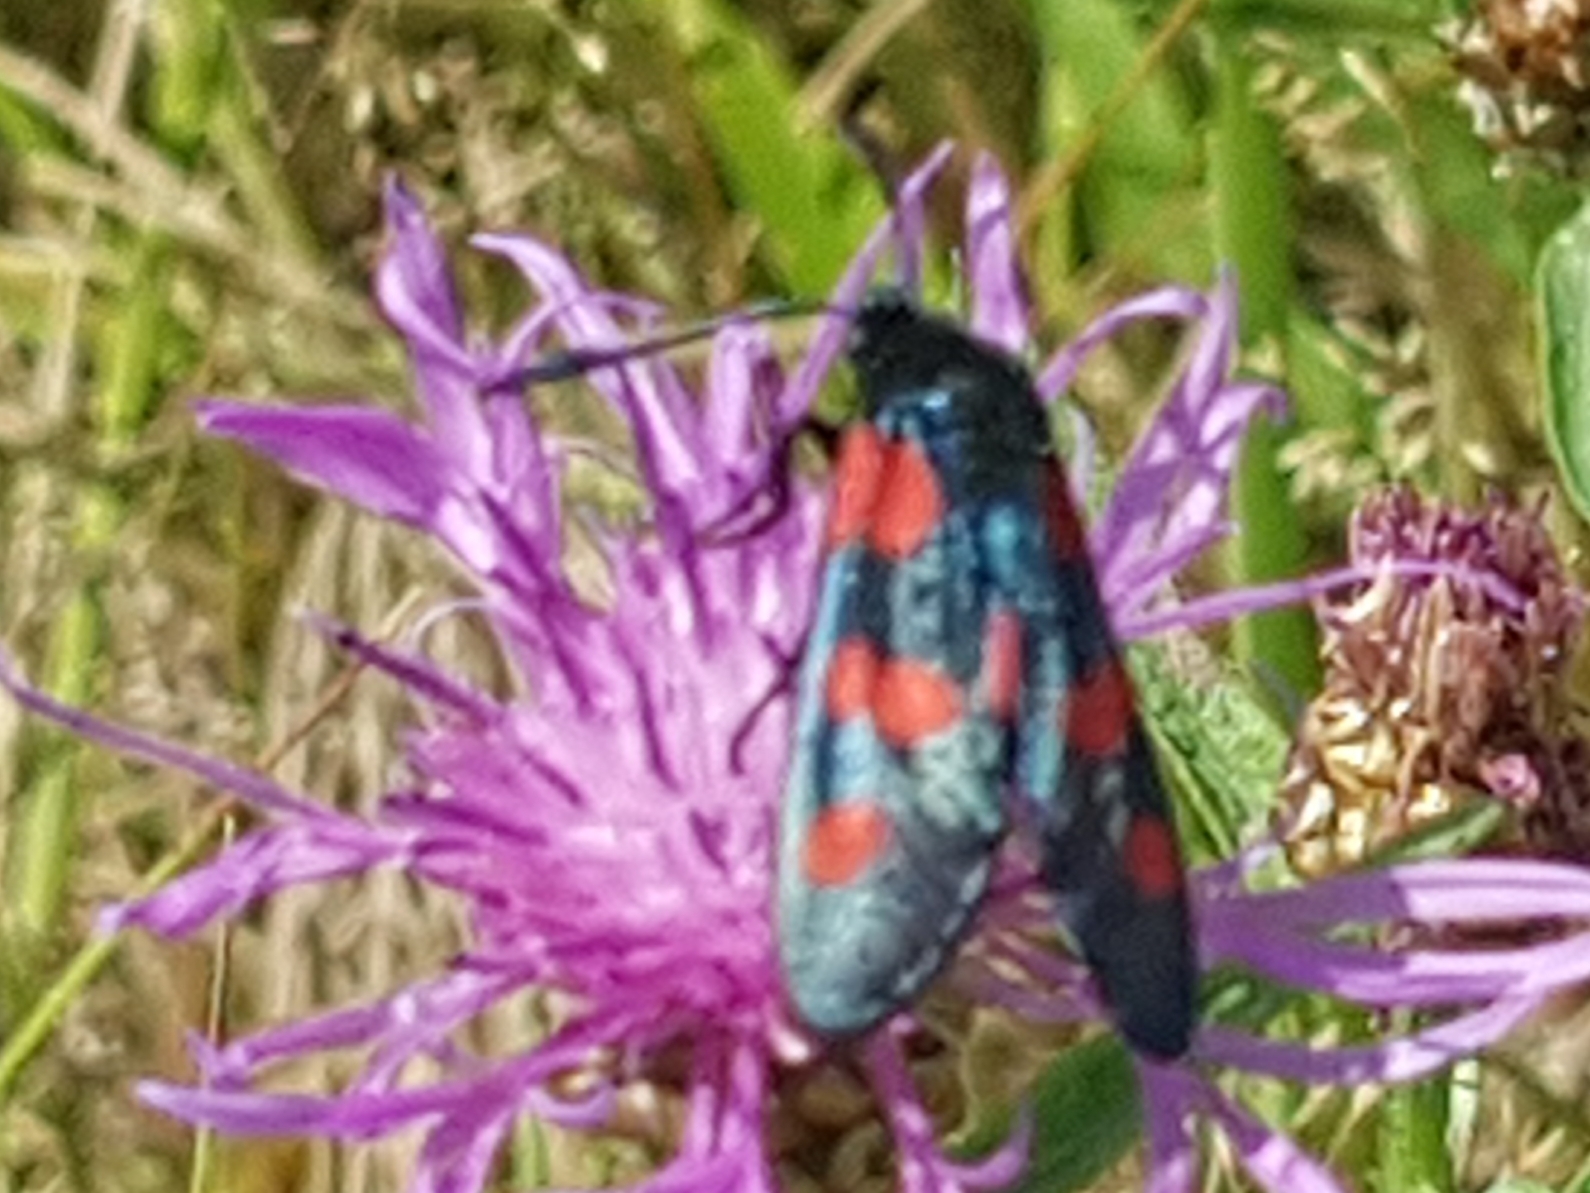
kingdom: Animalia
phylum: Arthropoda
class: Insecta
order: Lepidoptera
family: Zygaenidae
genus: Zygaena
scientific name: Zygaena lonicerae
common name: Narrow-bordered five-spot burnet
